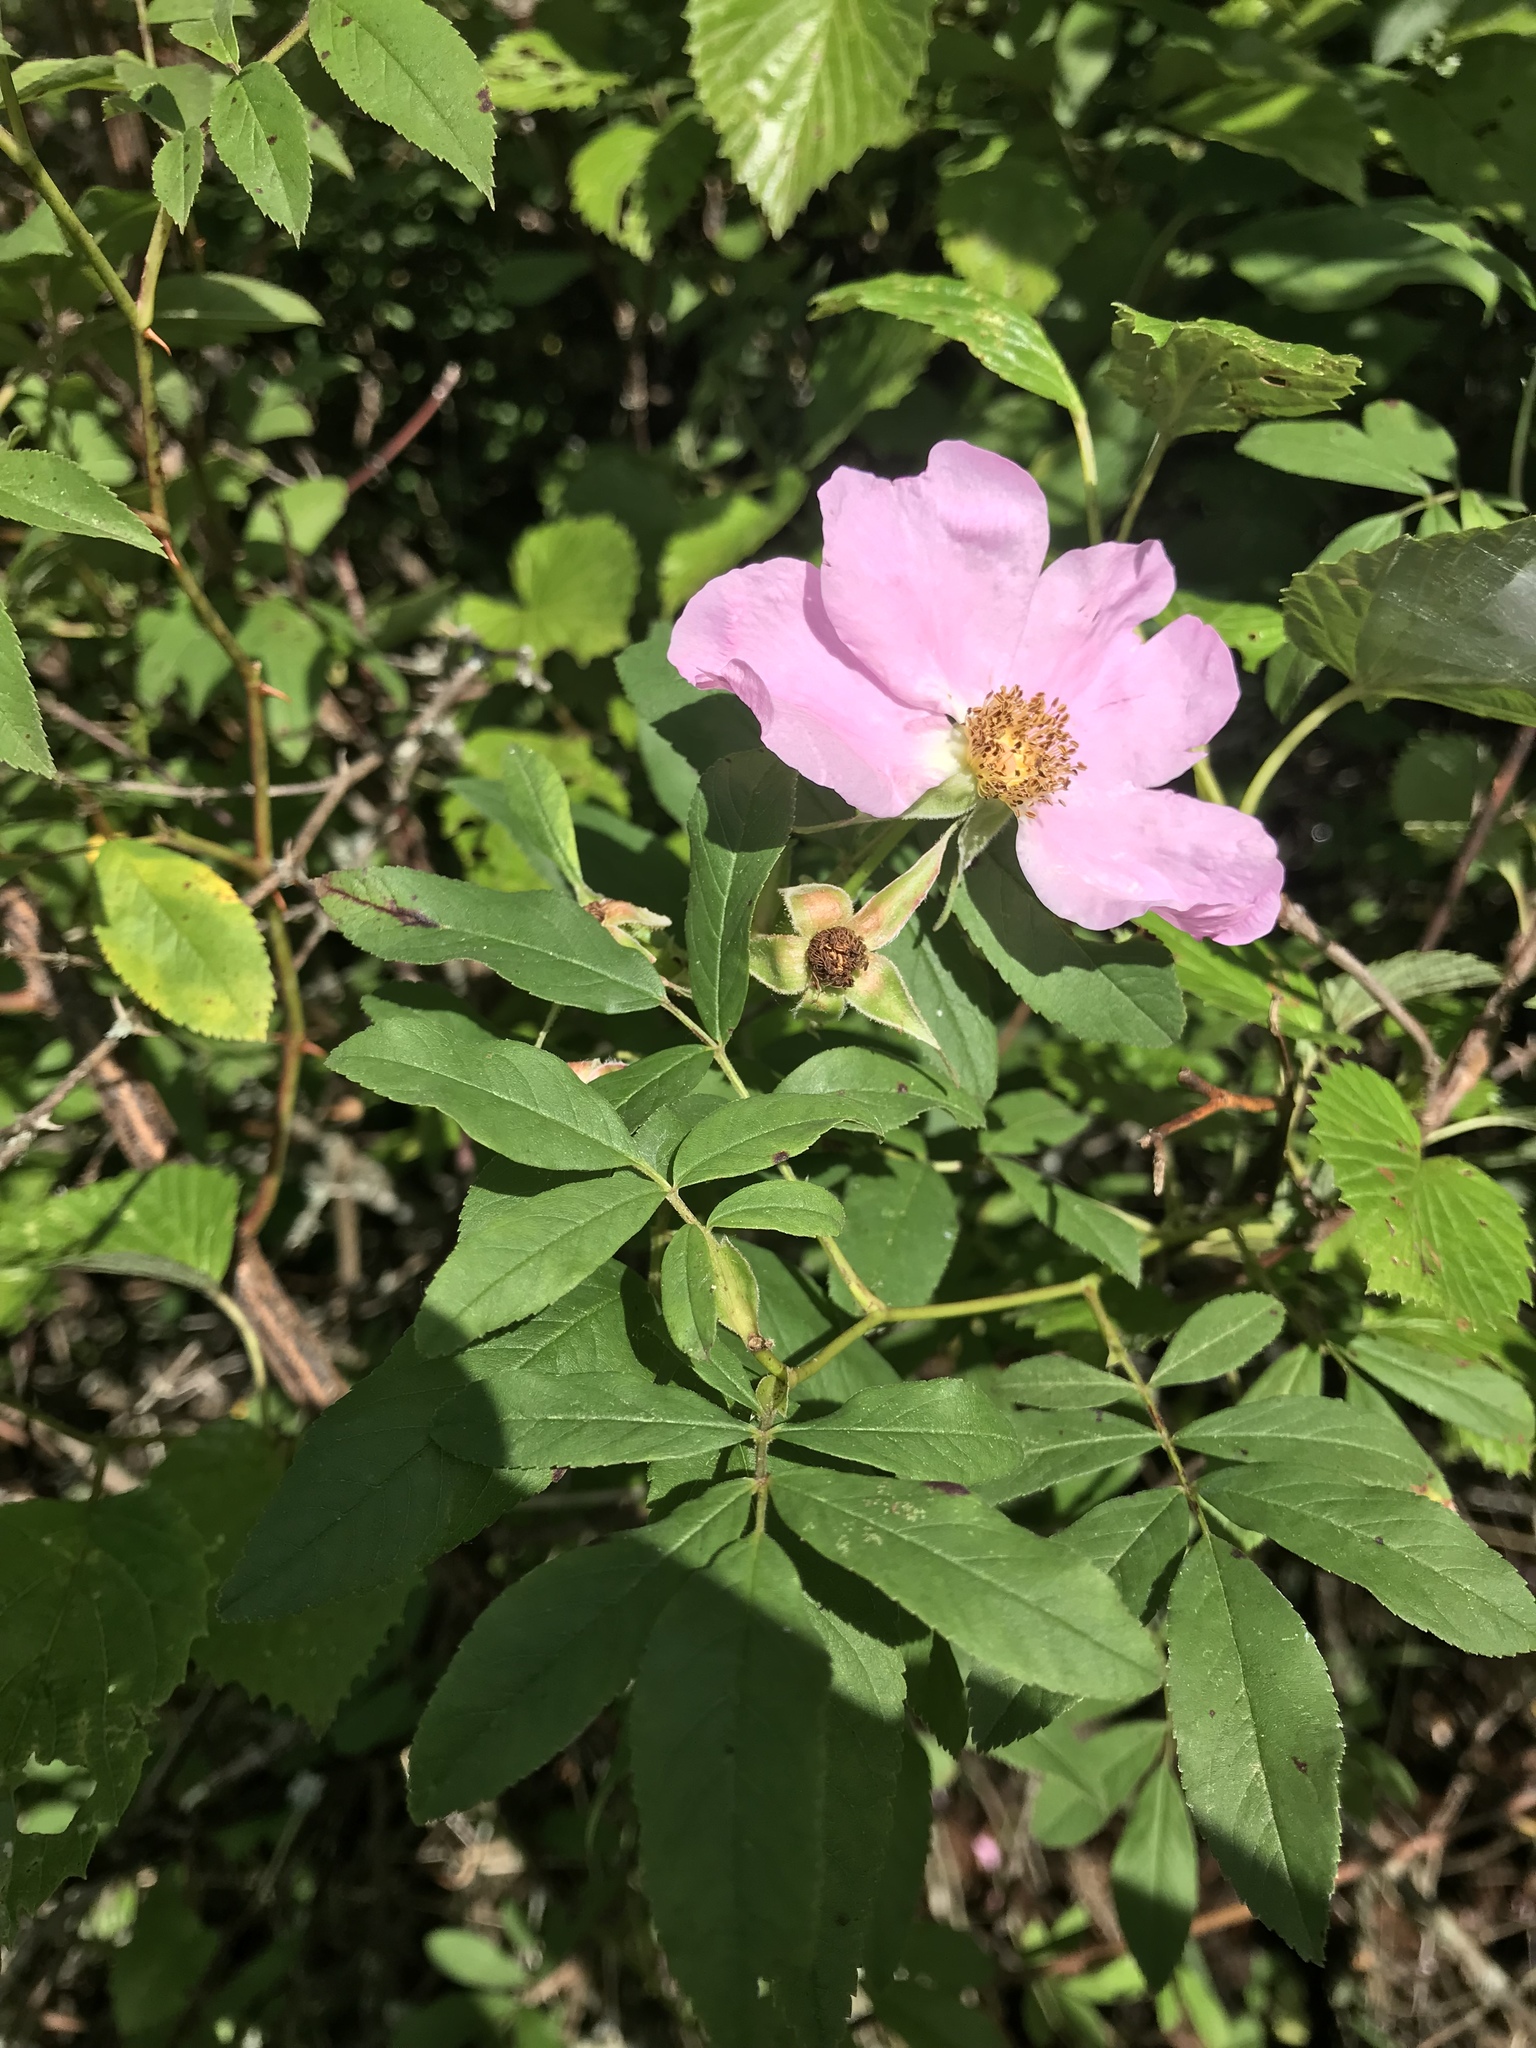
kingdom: Plantae
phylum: Tracheophyta
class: Magnoliopsida
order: Rosales
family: Rosaceae
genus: Rosa
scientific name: Rosa palustris
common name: Swamp rose
